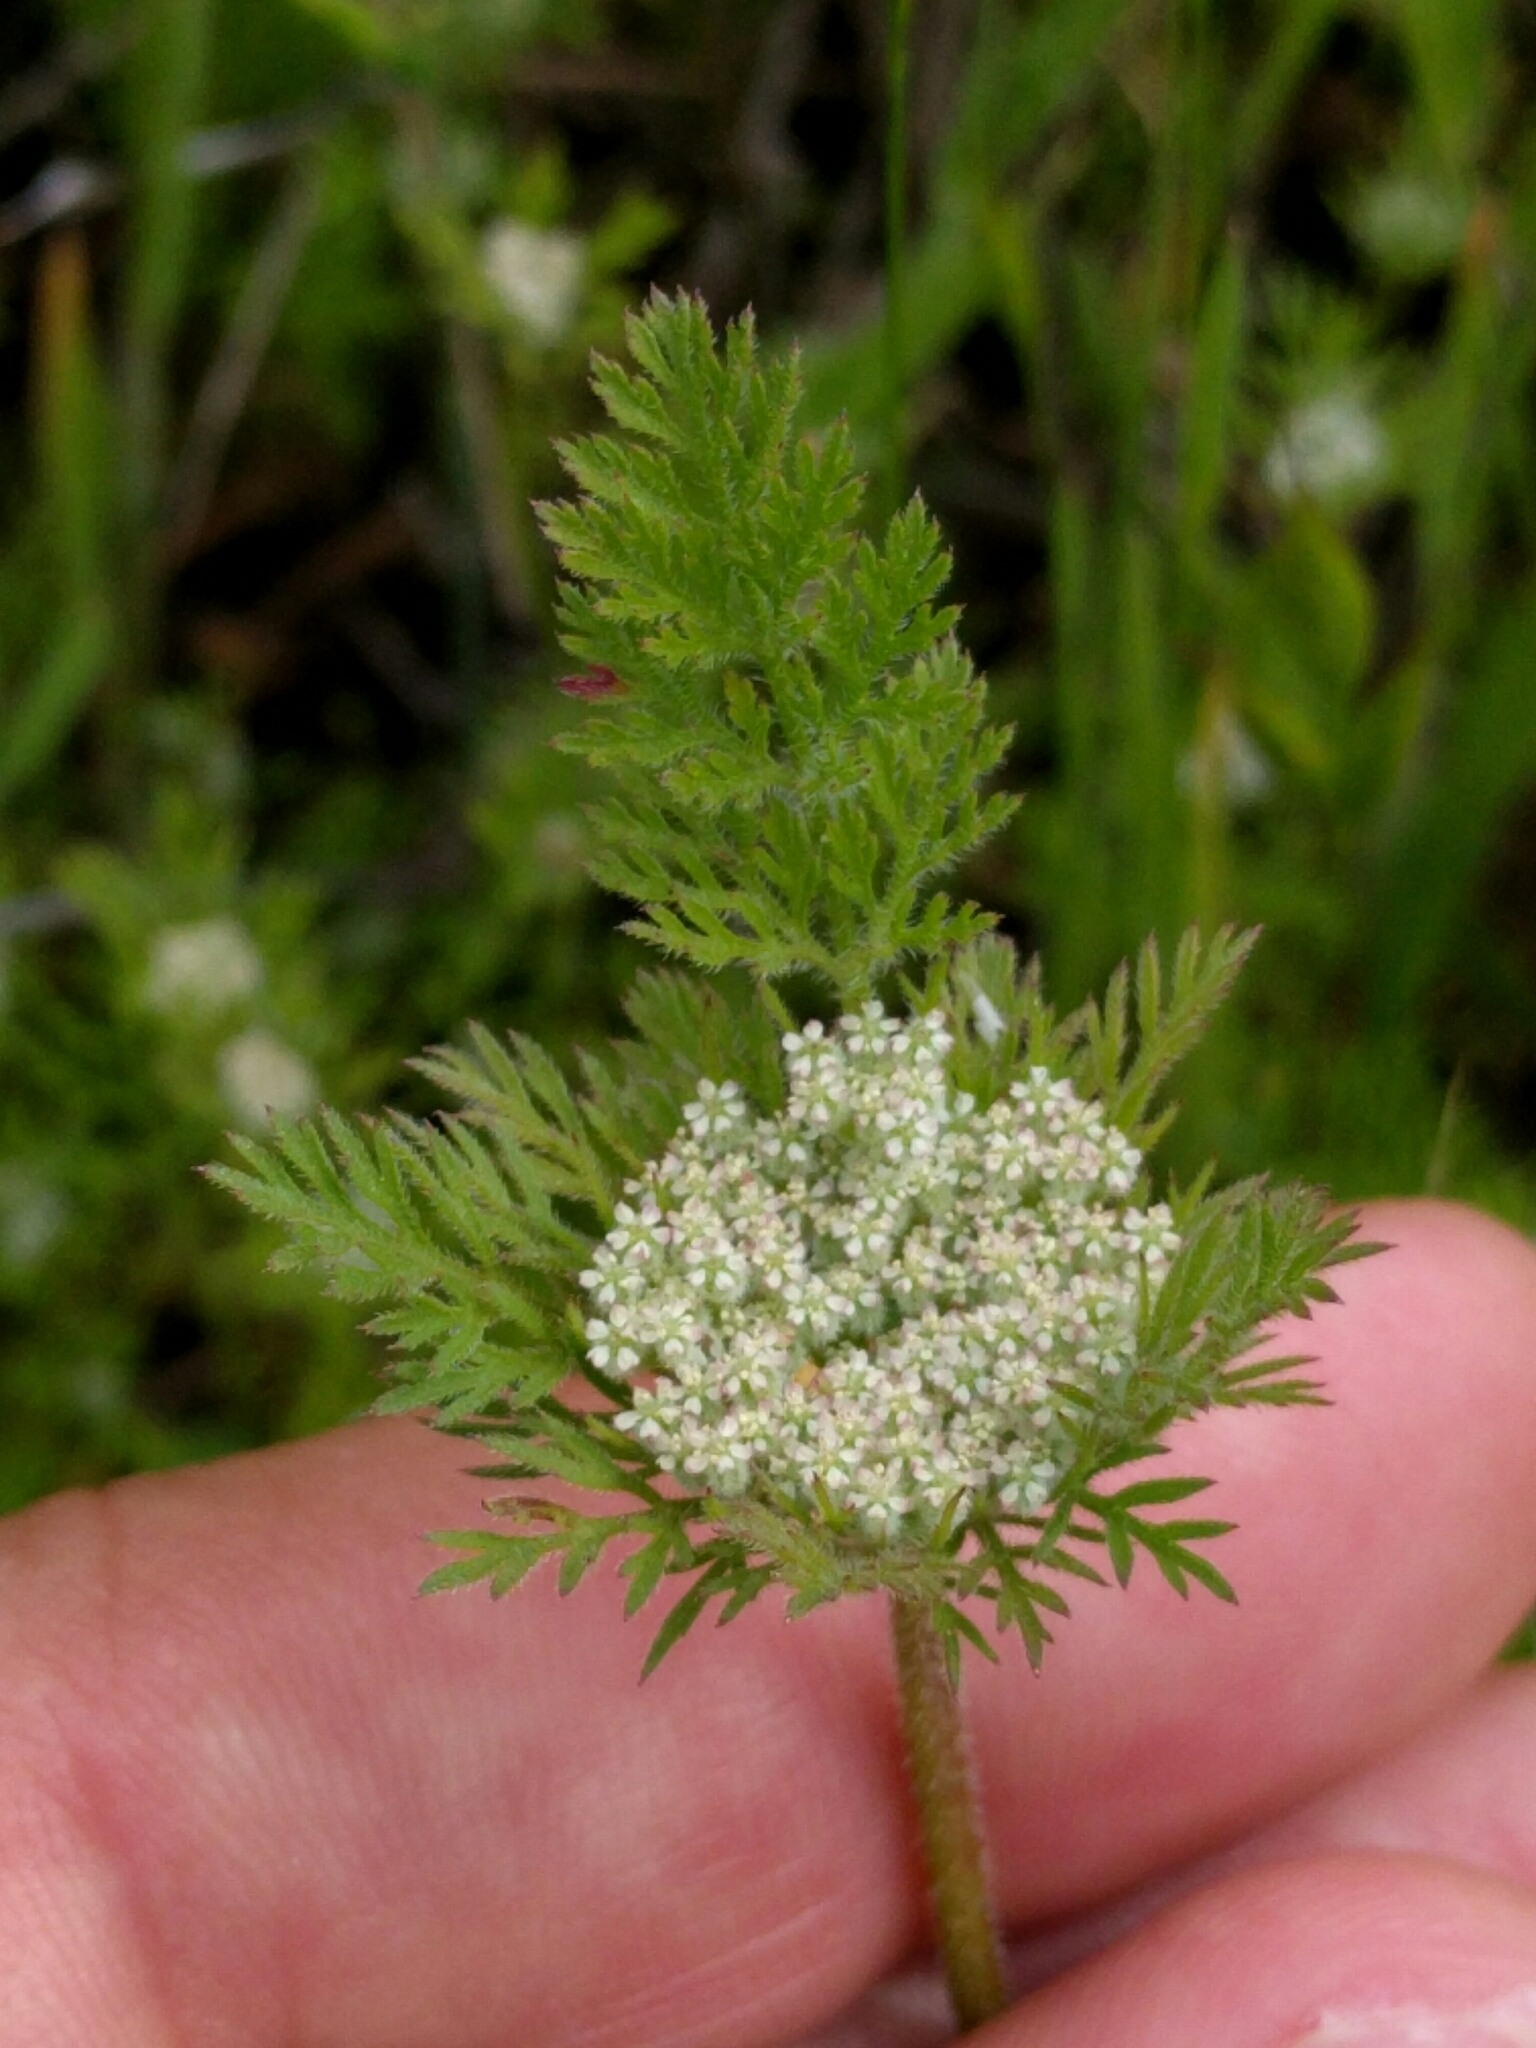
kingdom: Plantae
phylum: Tracheophyta
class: Magnoliopsida
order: Apiales
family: Apiaceae
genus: Daucus
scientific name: Daucus pusillus
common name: Southwest wild carrot
